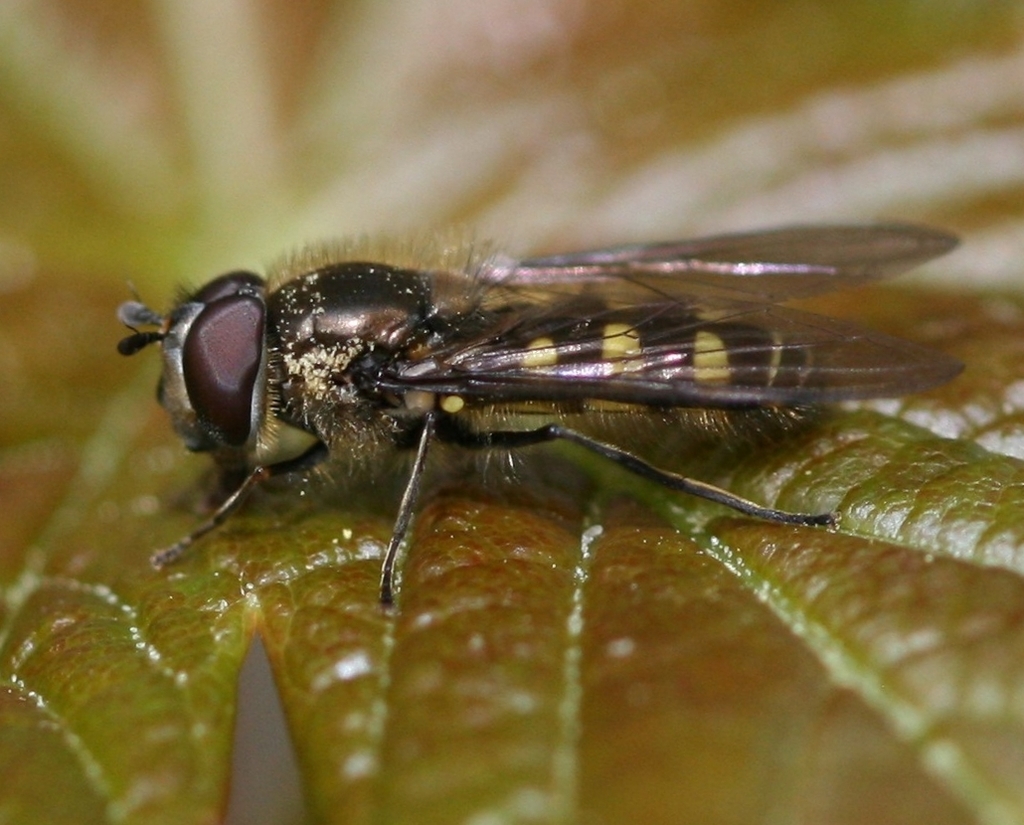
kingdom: Animalia
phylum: Arthropoda
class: Insecta
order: Diptera
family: Syrphidae
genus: Melangyna
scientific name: Melangyna lasiophthalma
